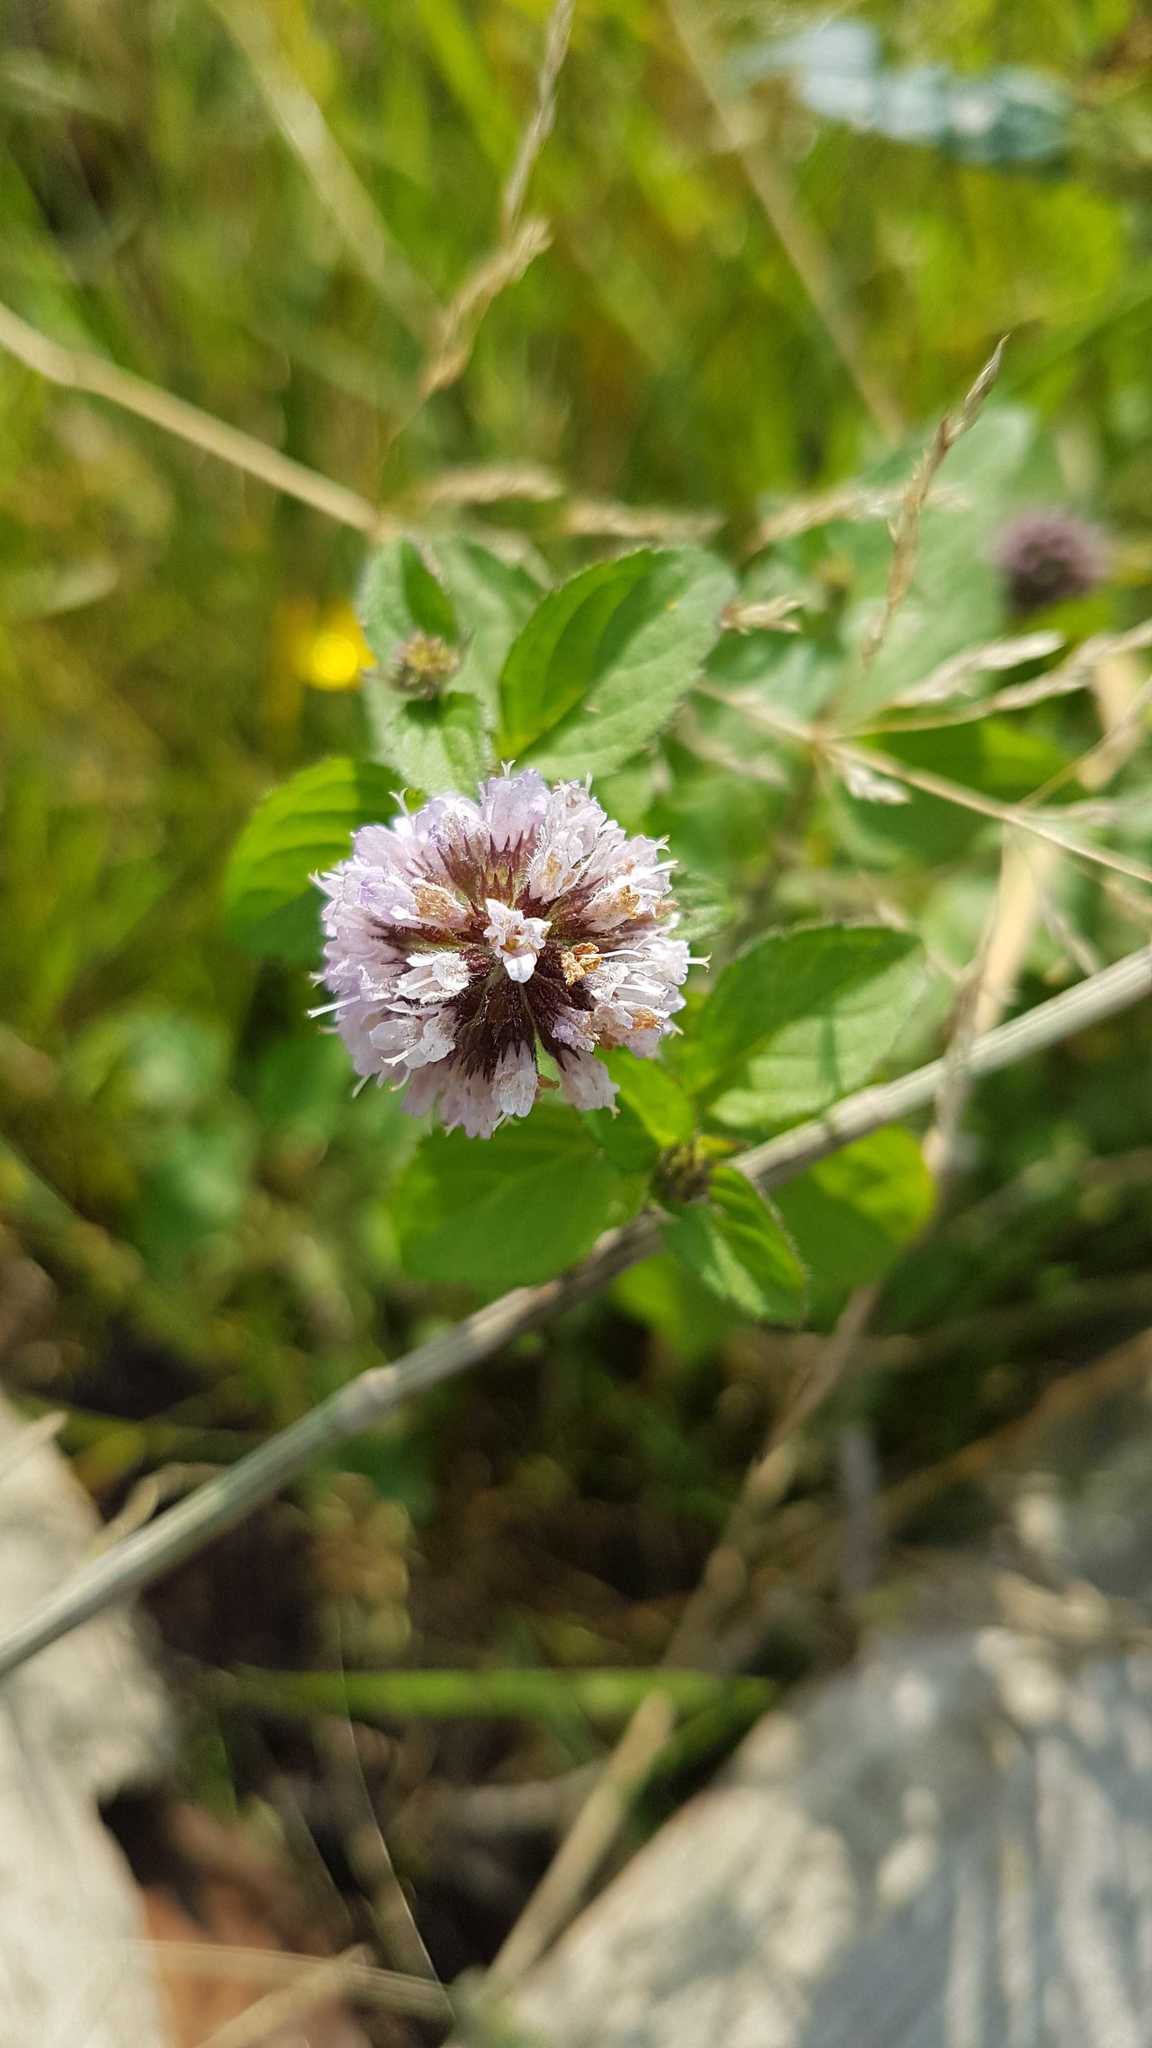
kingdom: Plantae
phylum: Tracheophyta
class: Magnoliopsida
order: Lamiales
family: Lamiaceae
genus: Mentha
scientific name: Mentha aquatica
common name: Water mint
